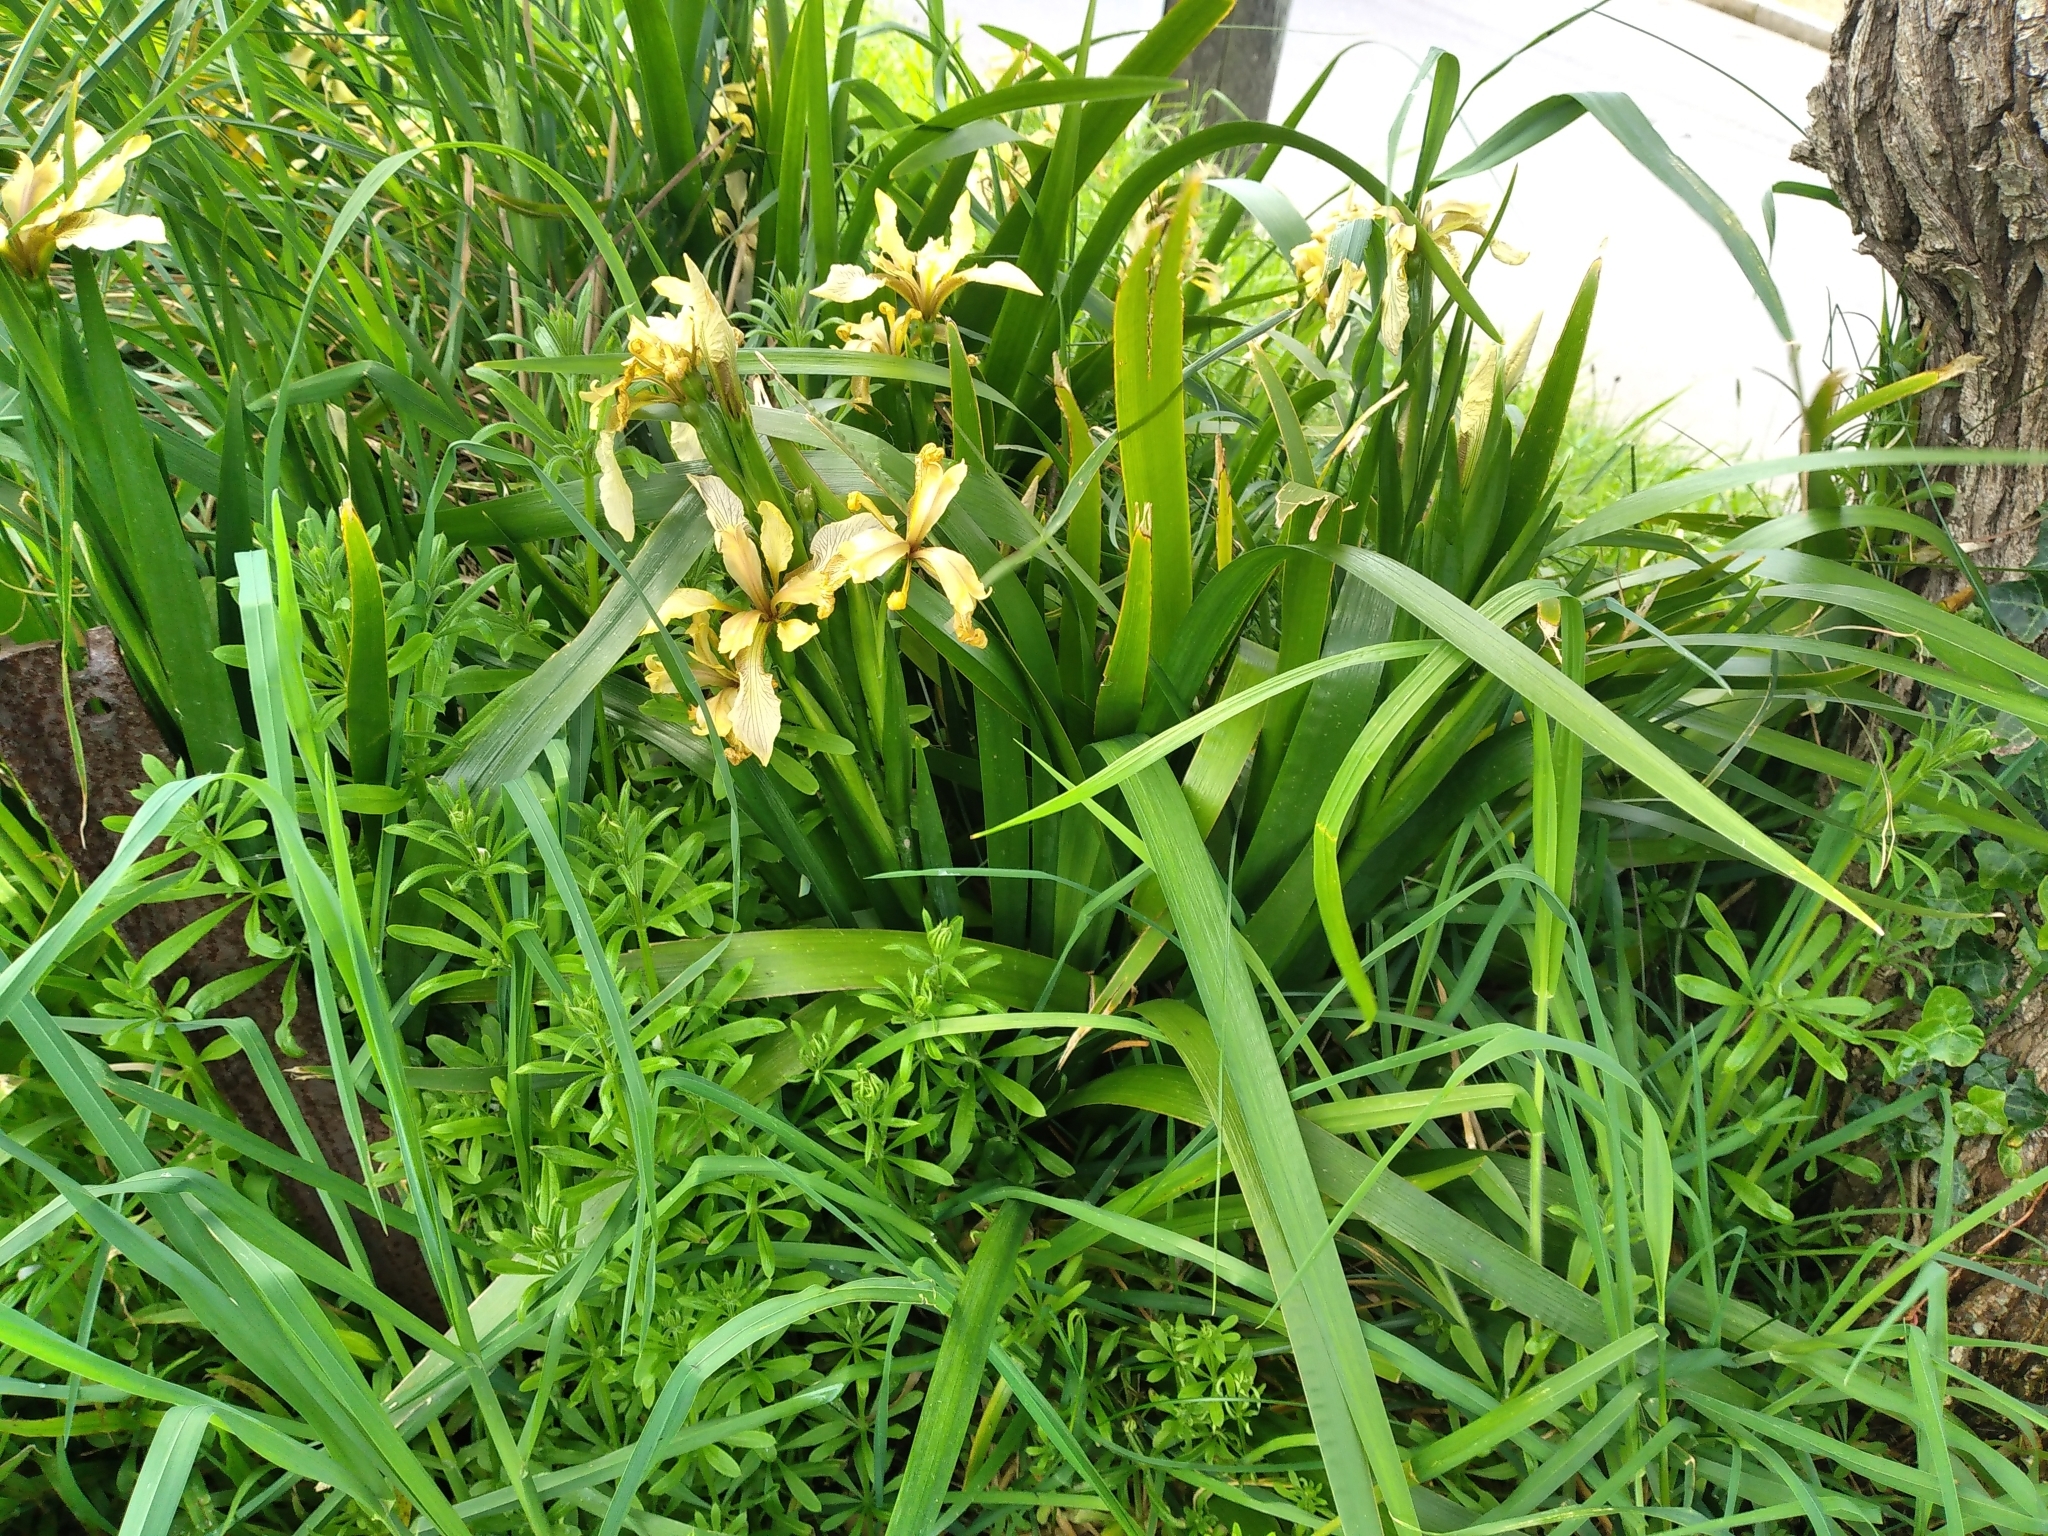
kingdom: Plantae
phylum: Tracheophyta
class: Liliopsida
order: Asparagales
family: Iridaceae
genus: Iris
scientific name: Iris foetidissima
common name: Stinking iris
